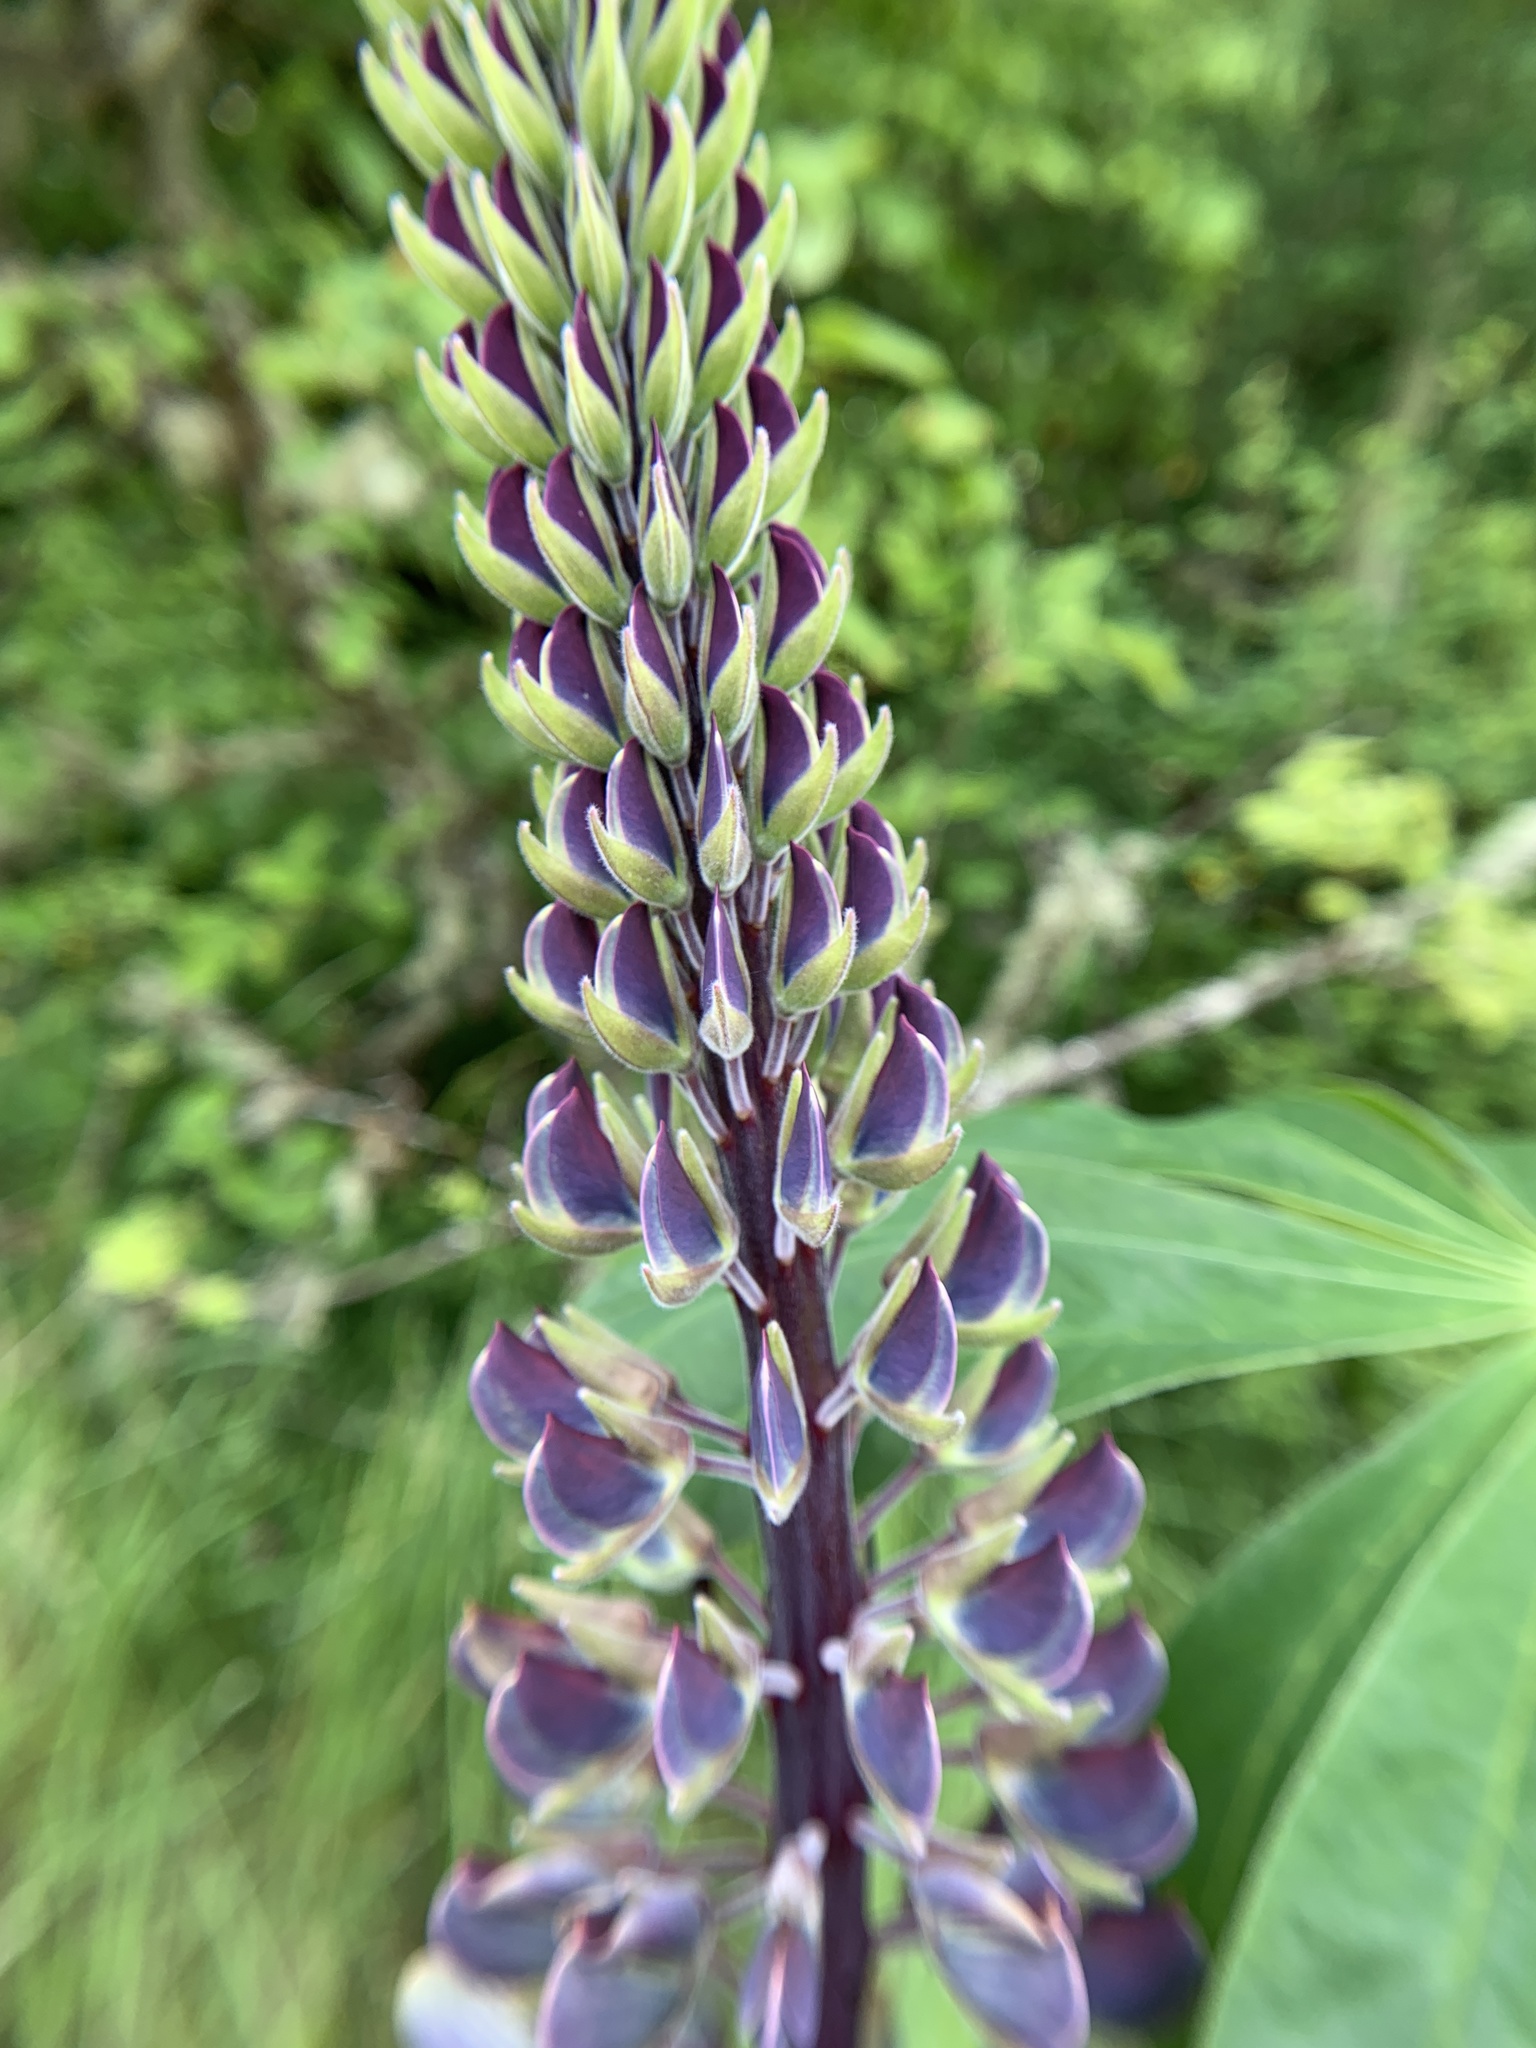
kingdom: Plantae
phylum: Tracheophyta
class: Magnoliopsida
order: Fabales
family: Fabaceae
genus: Lupinus
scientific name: Lupinus polyphyllus
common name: Garden lupin
